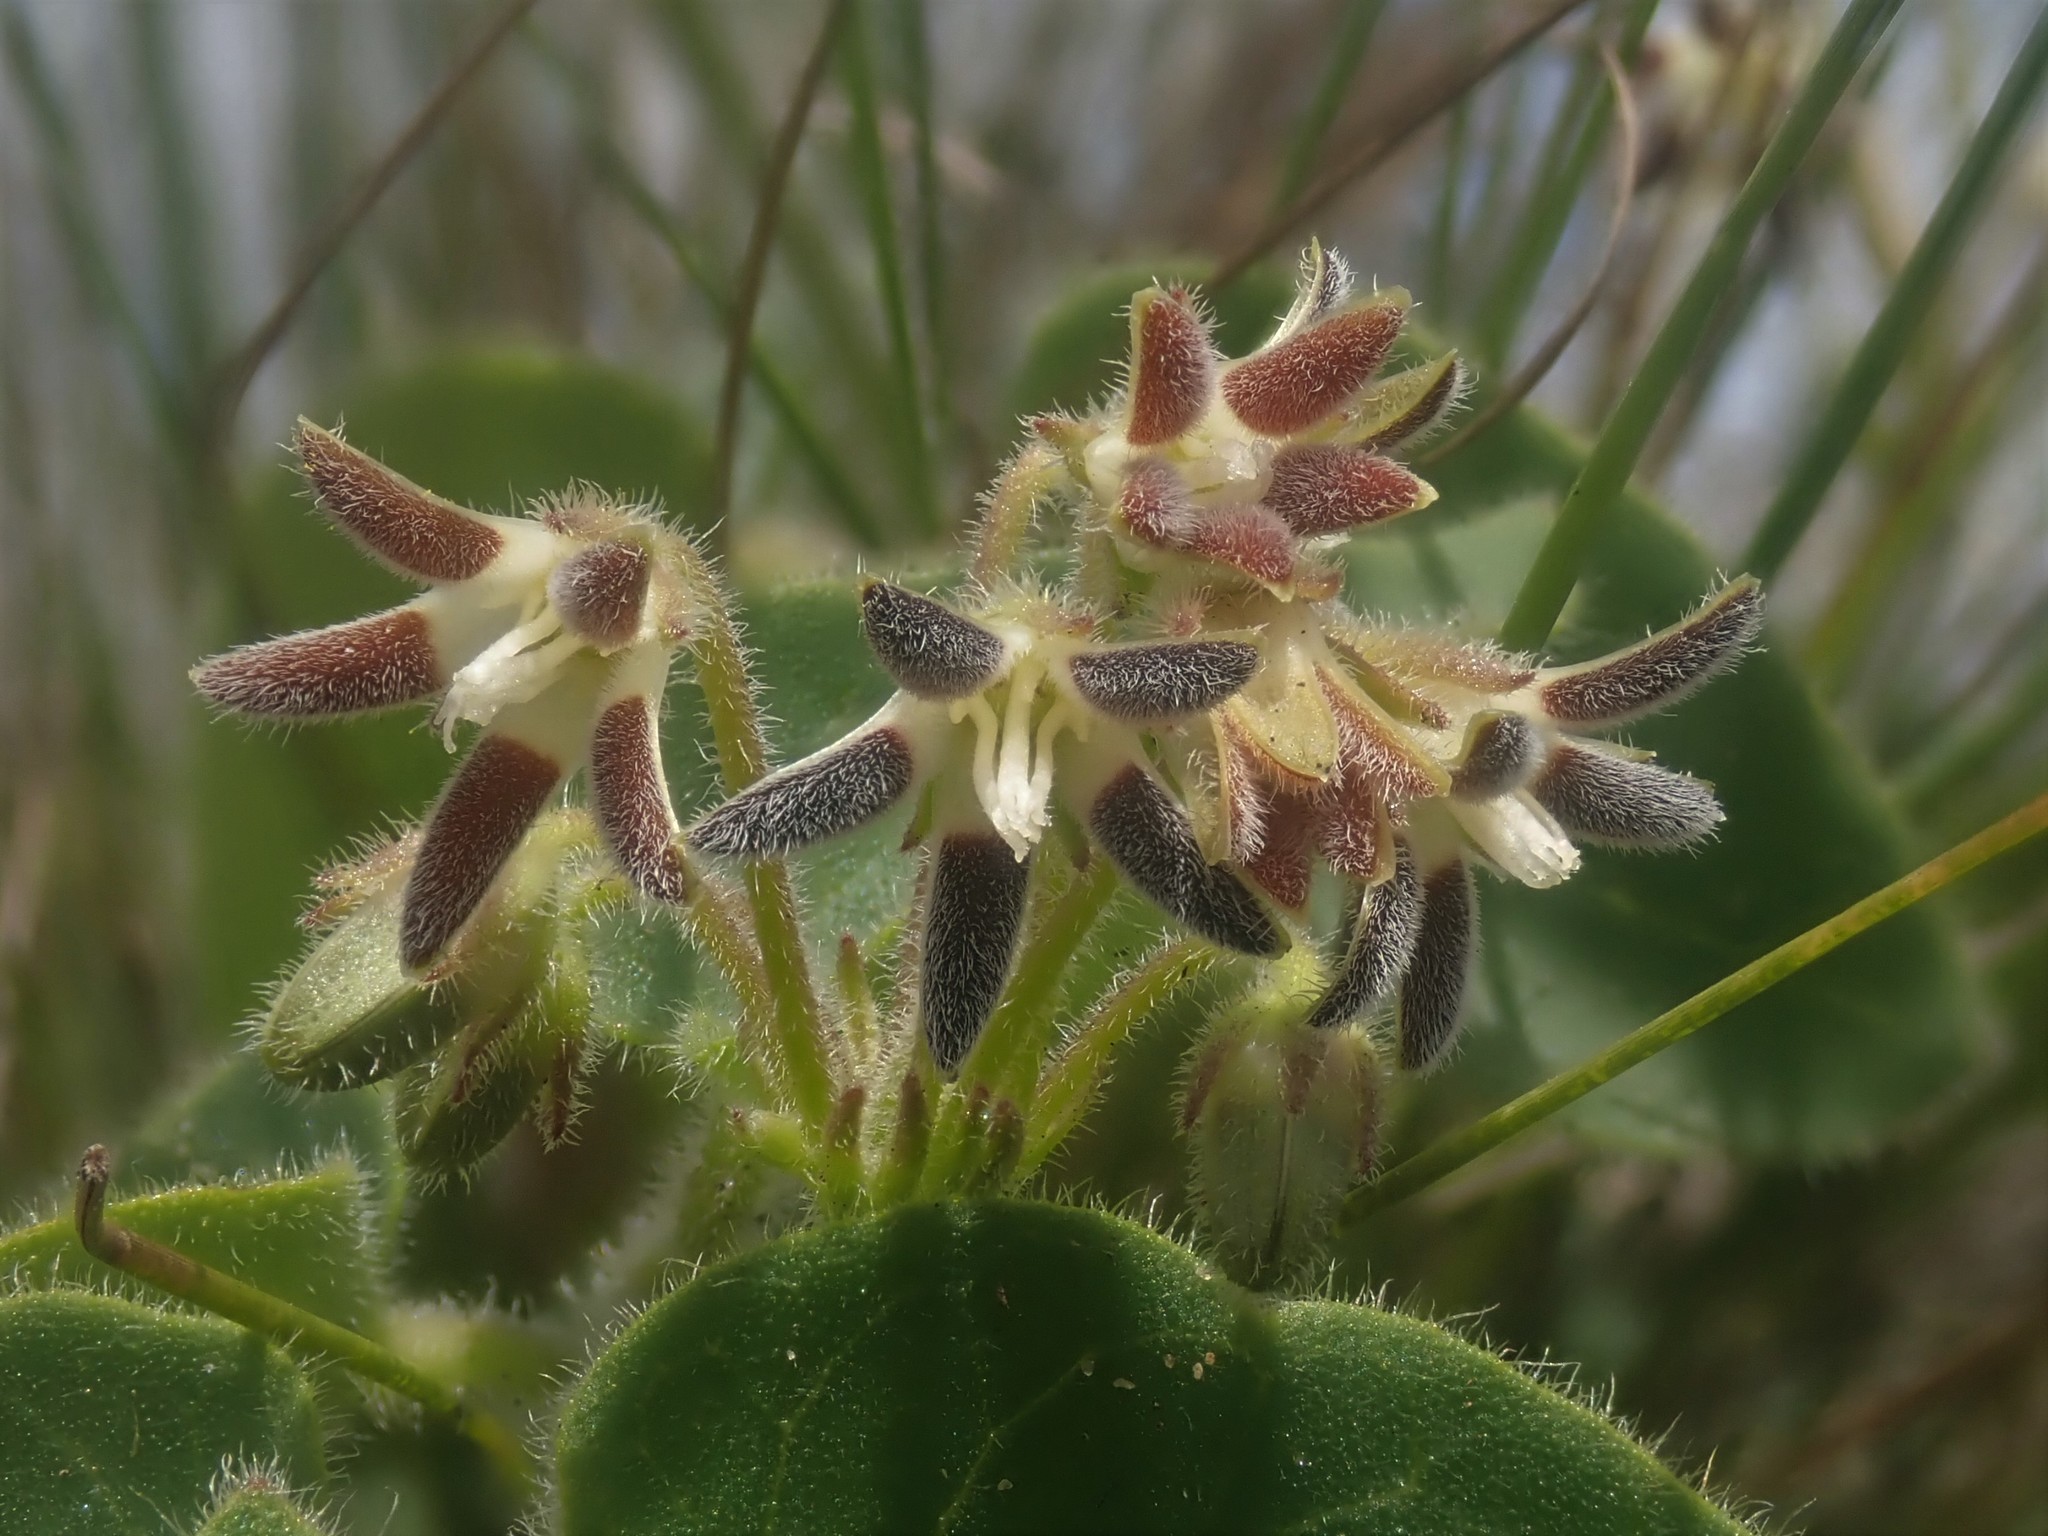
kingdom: Plantae
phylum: Tracheophyta
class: Magnoliopsida
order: Gentianales
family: Apocynaceae
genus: Anisotoma
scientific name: Anisotoma pedunculata
